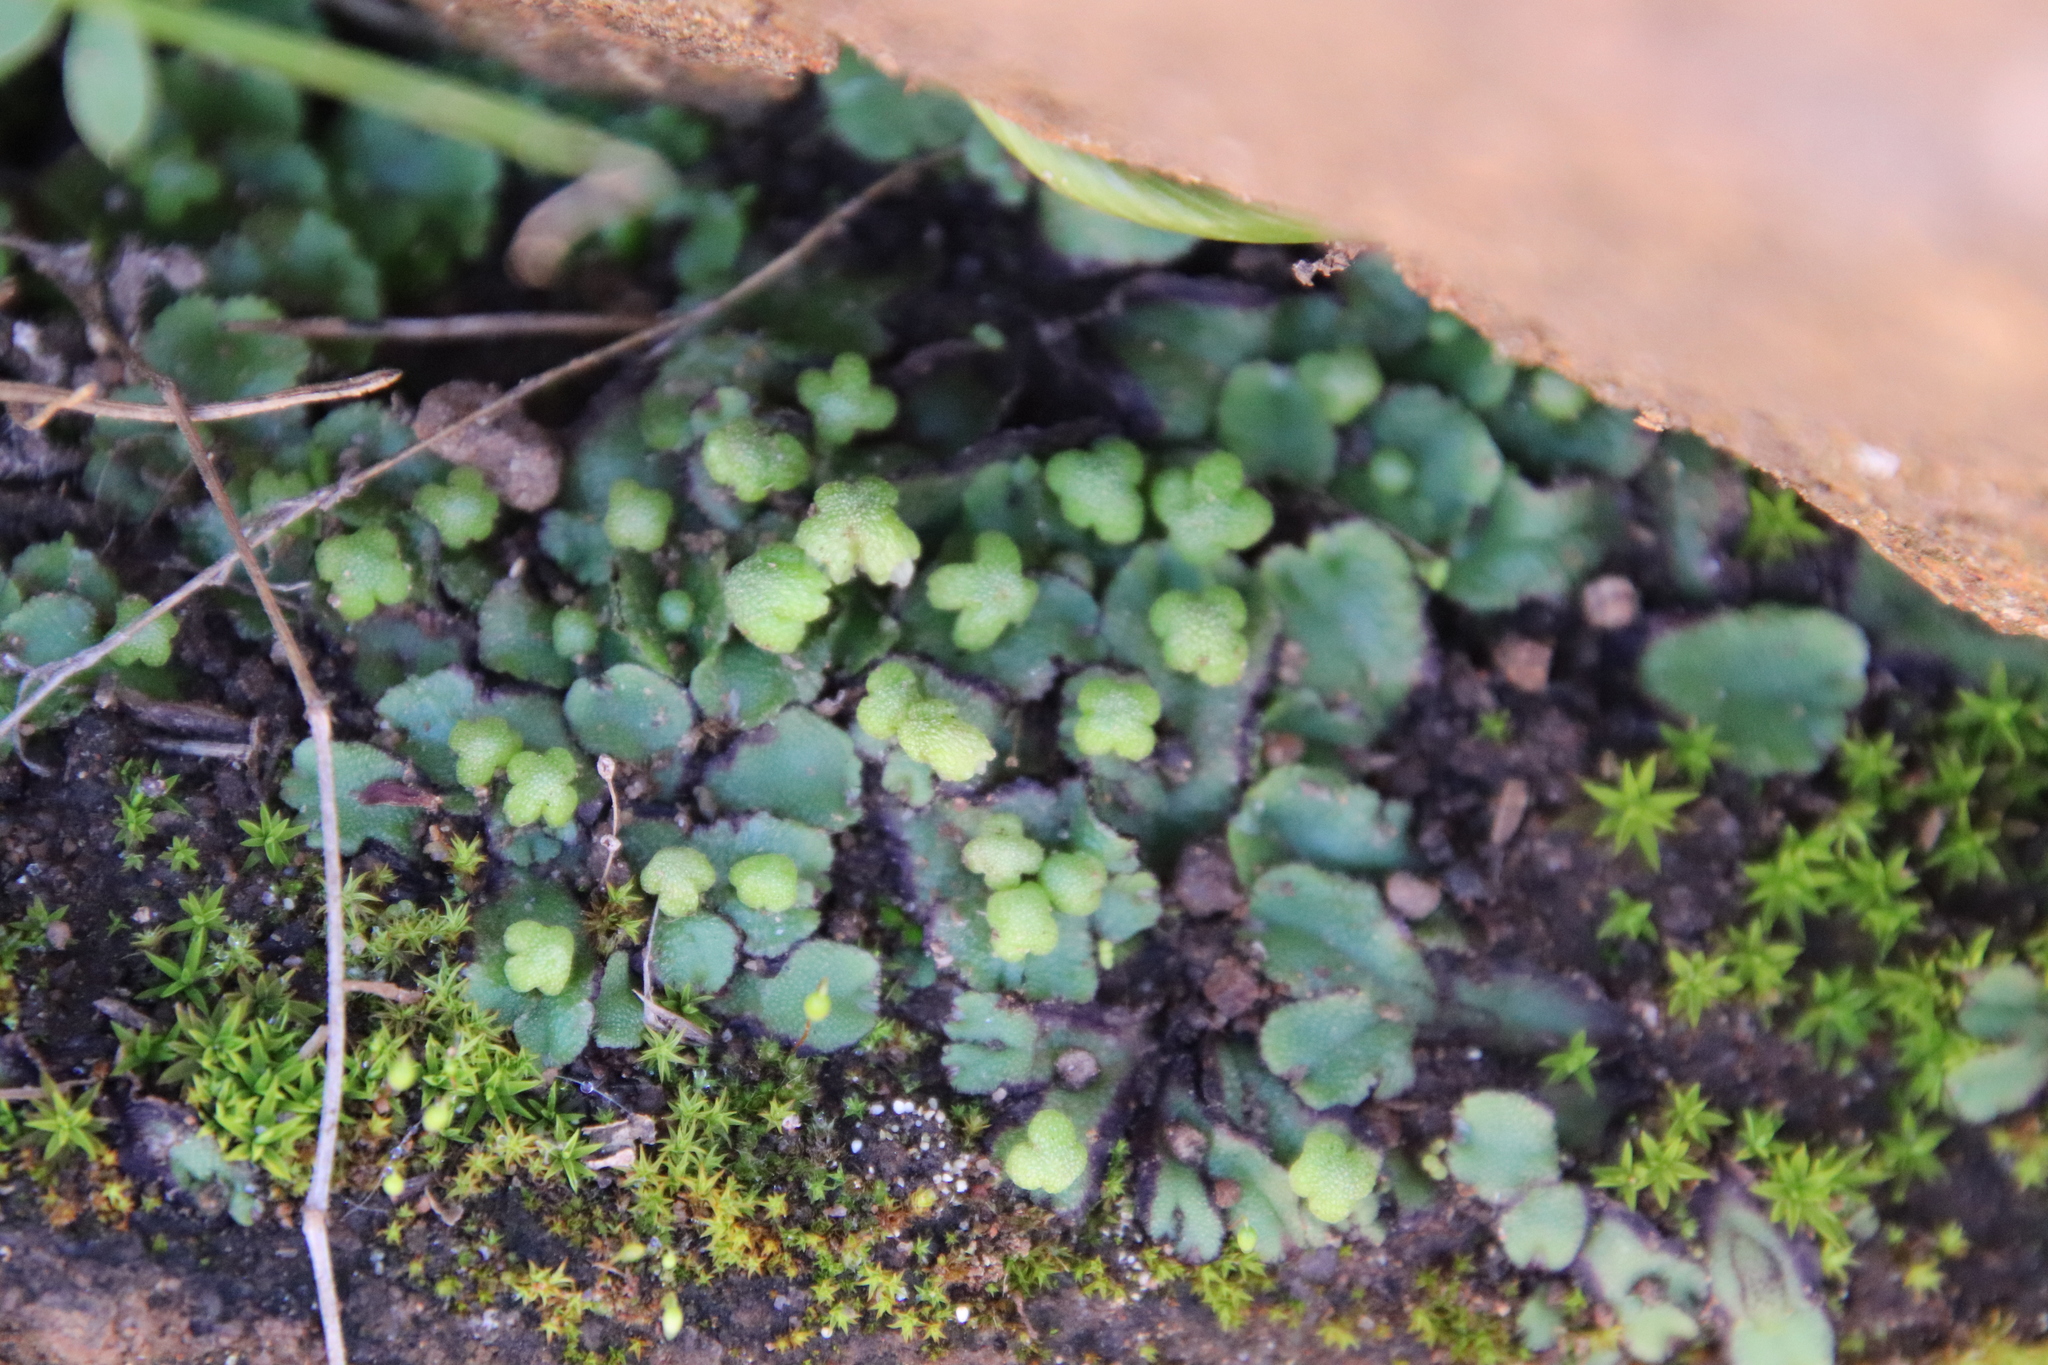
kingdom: Plantae
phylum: Marchantiophyta
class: Marchantiopsida
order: Marchantiales
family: Aytoniaceae
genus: Asterella
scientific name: Asterella californica
